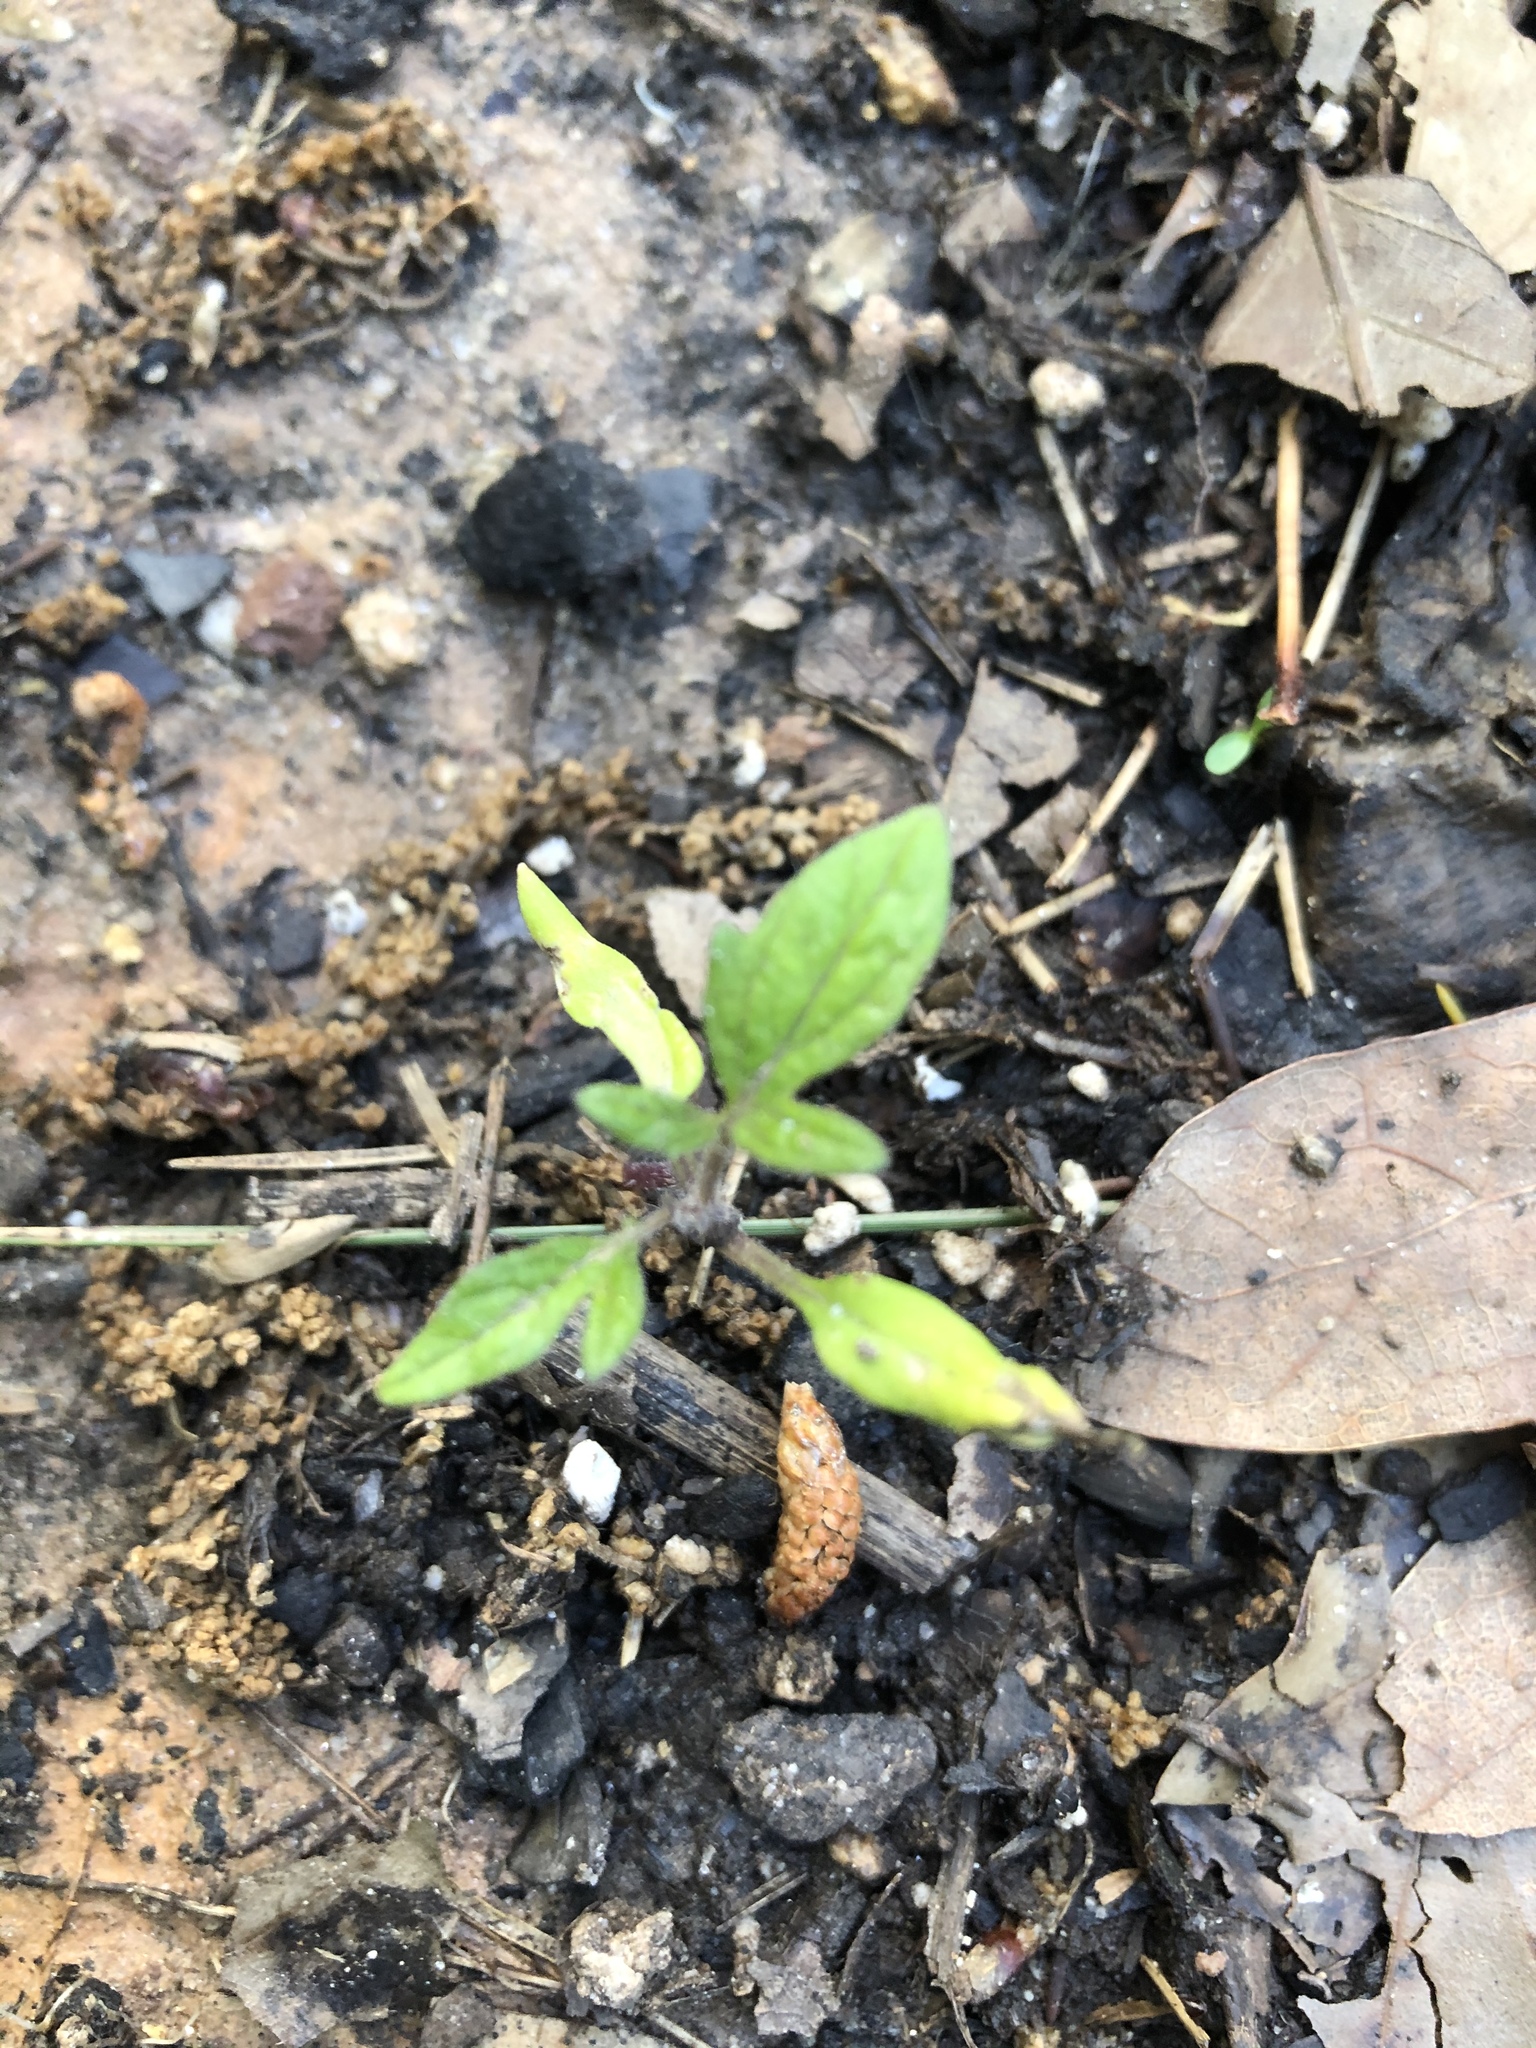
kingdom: Plantae
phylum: Tracheophyta
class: Magnoliopsida
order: Solanales
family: Solanaceae
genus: Solanum
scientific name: Solanum lycopersicum
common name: Garden tomato
